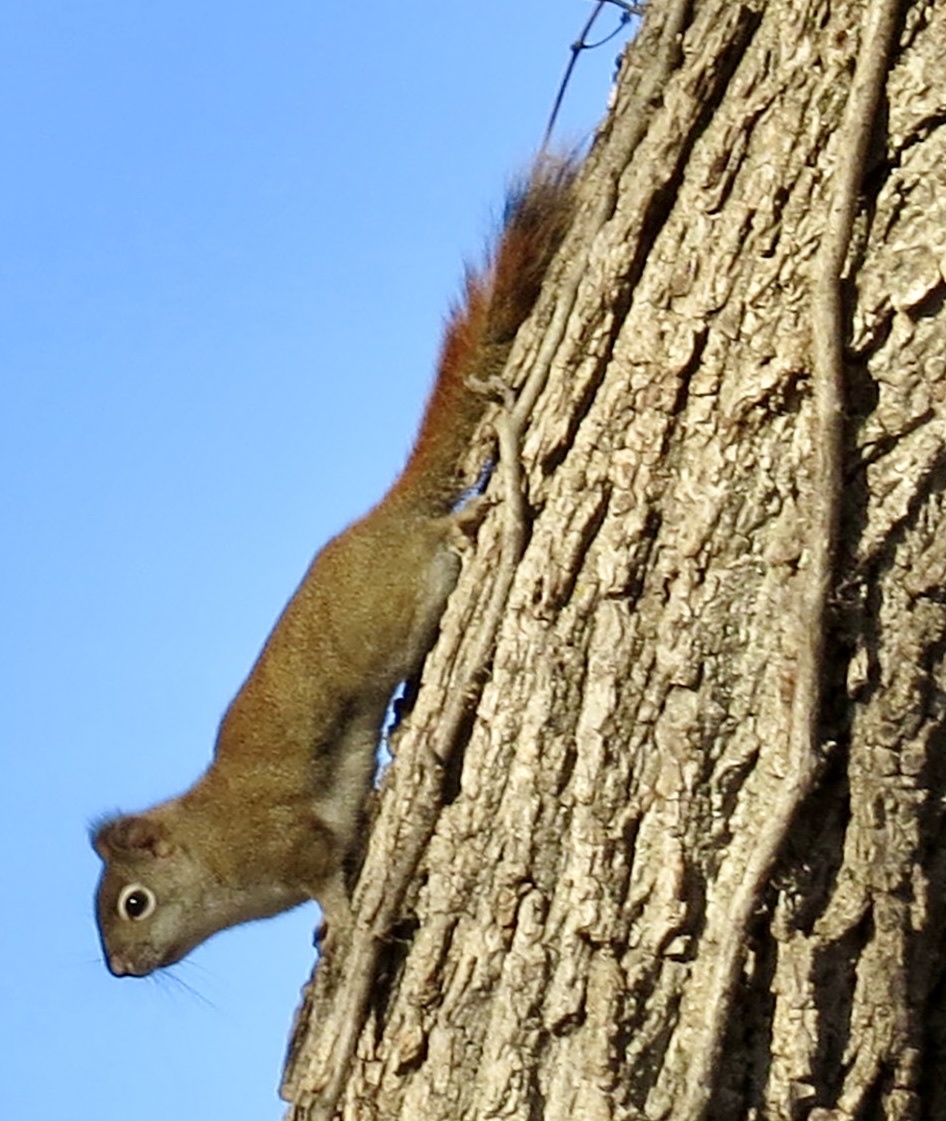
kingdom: Animalia
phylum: Chordata
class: Mammalia
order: Rodentia
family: Sciuridae
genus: Tamiasciurus
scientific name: Tamiasciurus hudsonicus
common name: Red squirrel
